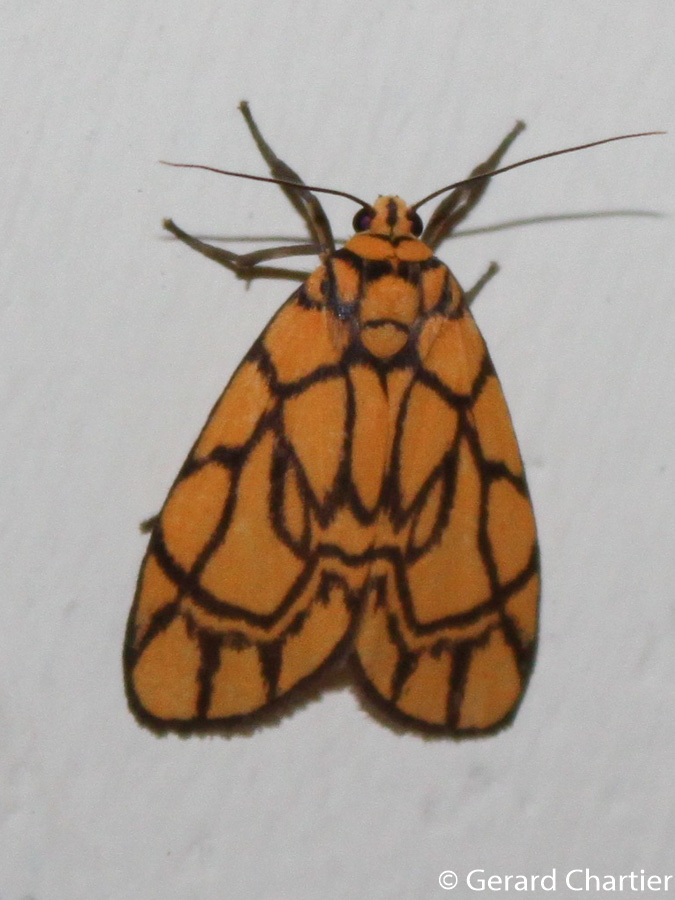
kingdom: Animalia
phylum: Arthropoda
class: Insecta
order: Lepidoptera
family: Erebidae
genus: Cyme
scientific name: Cyme euprepioides
